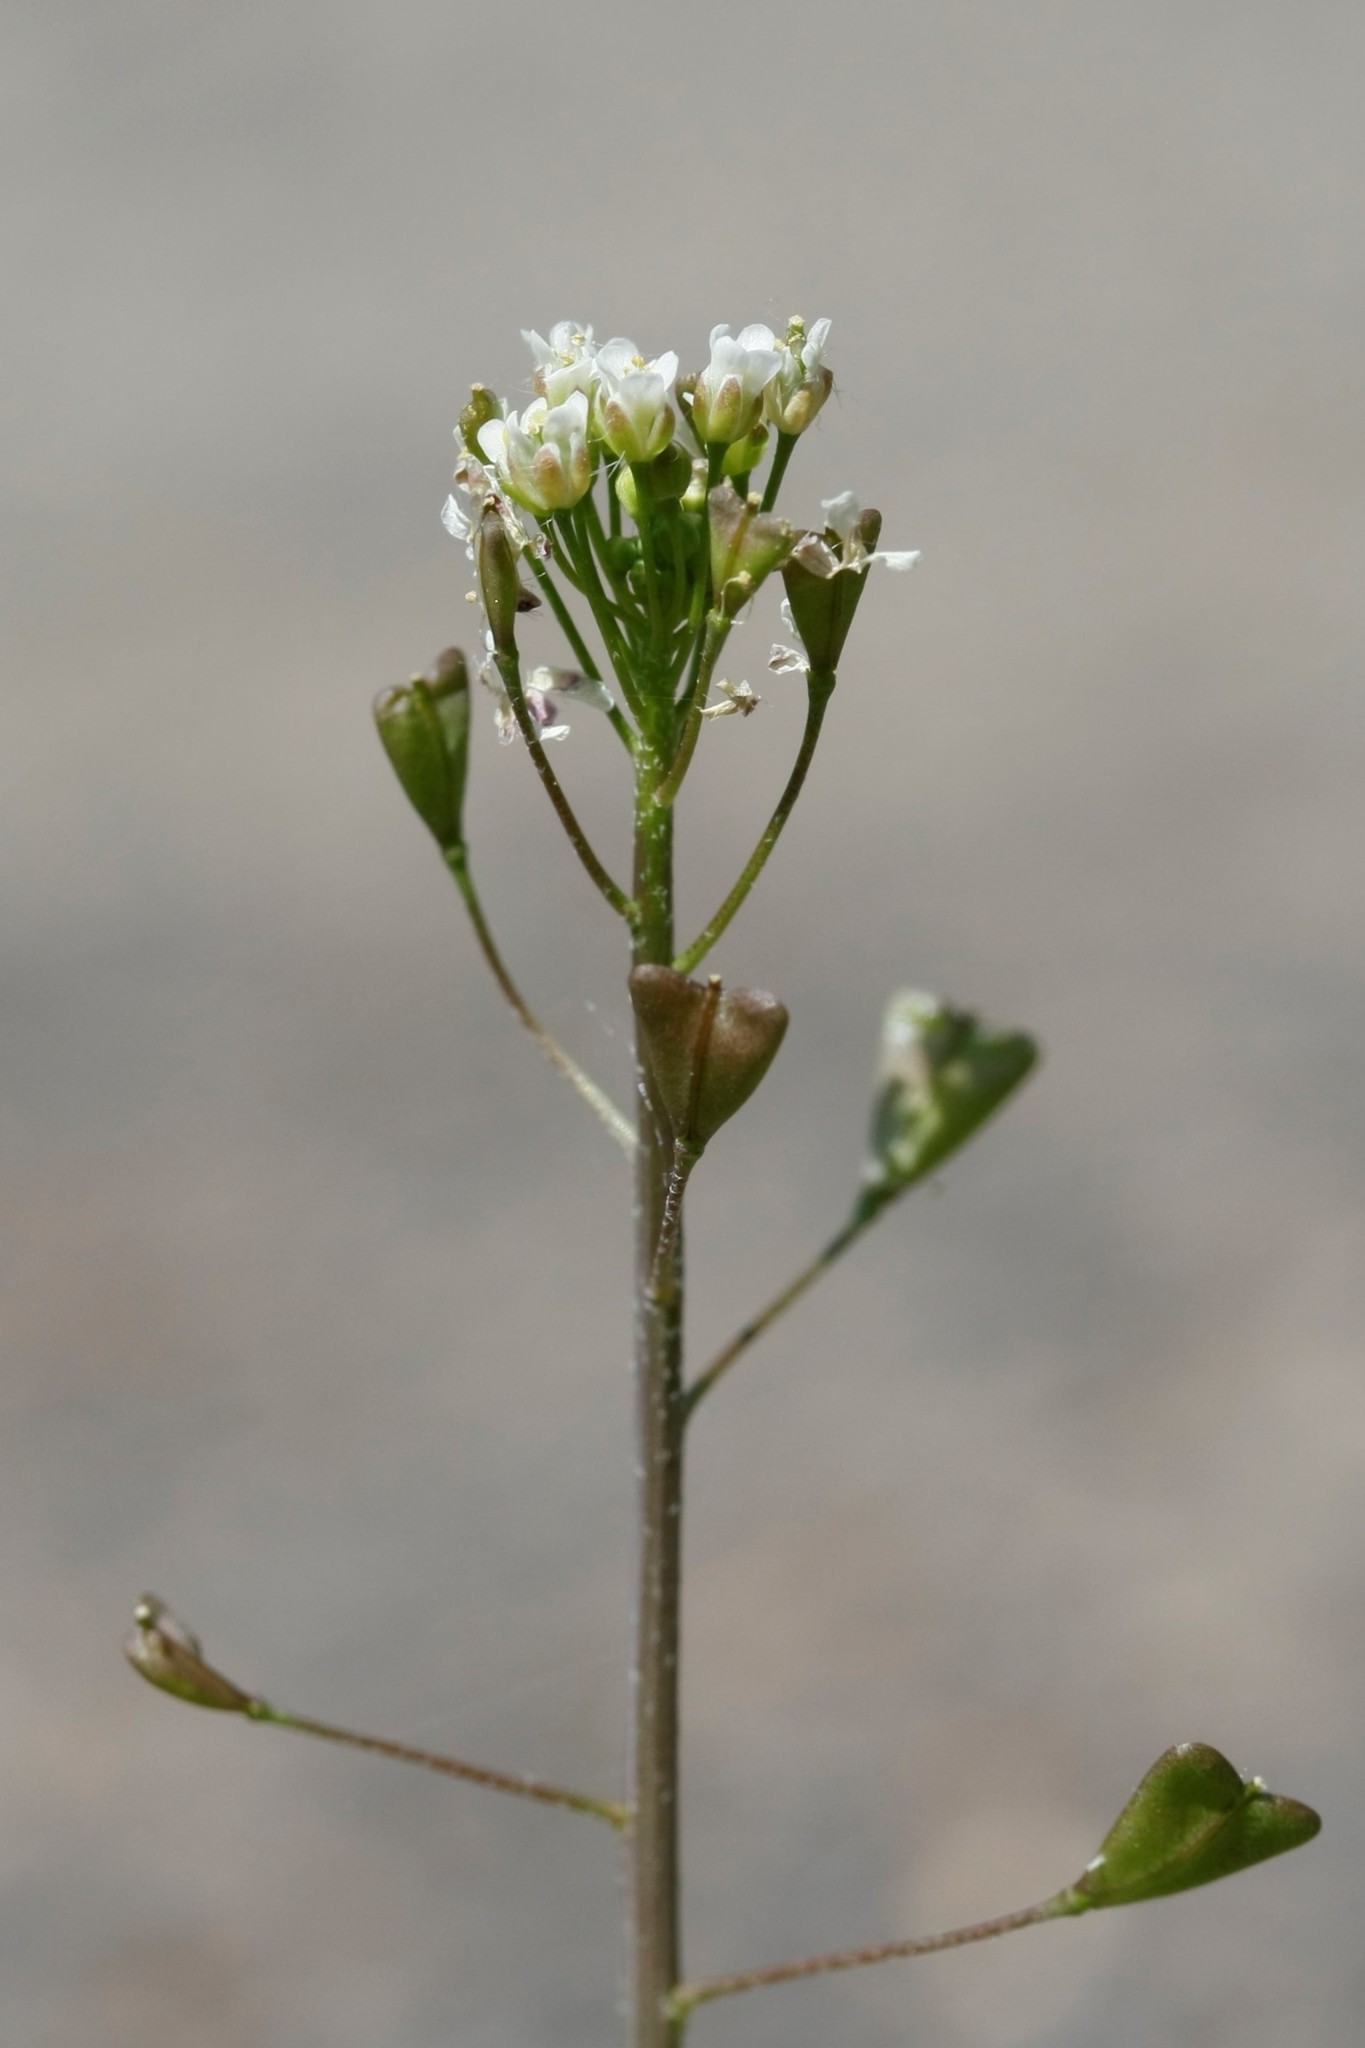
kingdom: Plantae
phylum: Tracheophyta
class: Magnoliopsida
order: Brassicales
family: Brassicaceae
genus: Capsella
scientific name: Capsella bursa-pastoris
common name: Shepherd's purse
